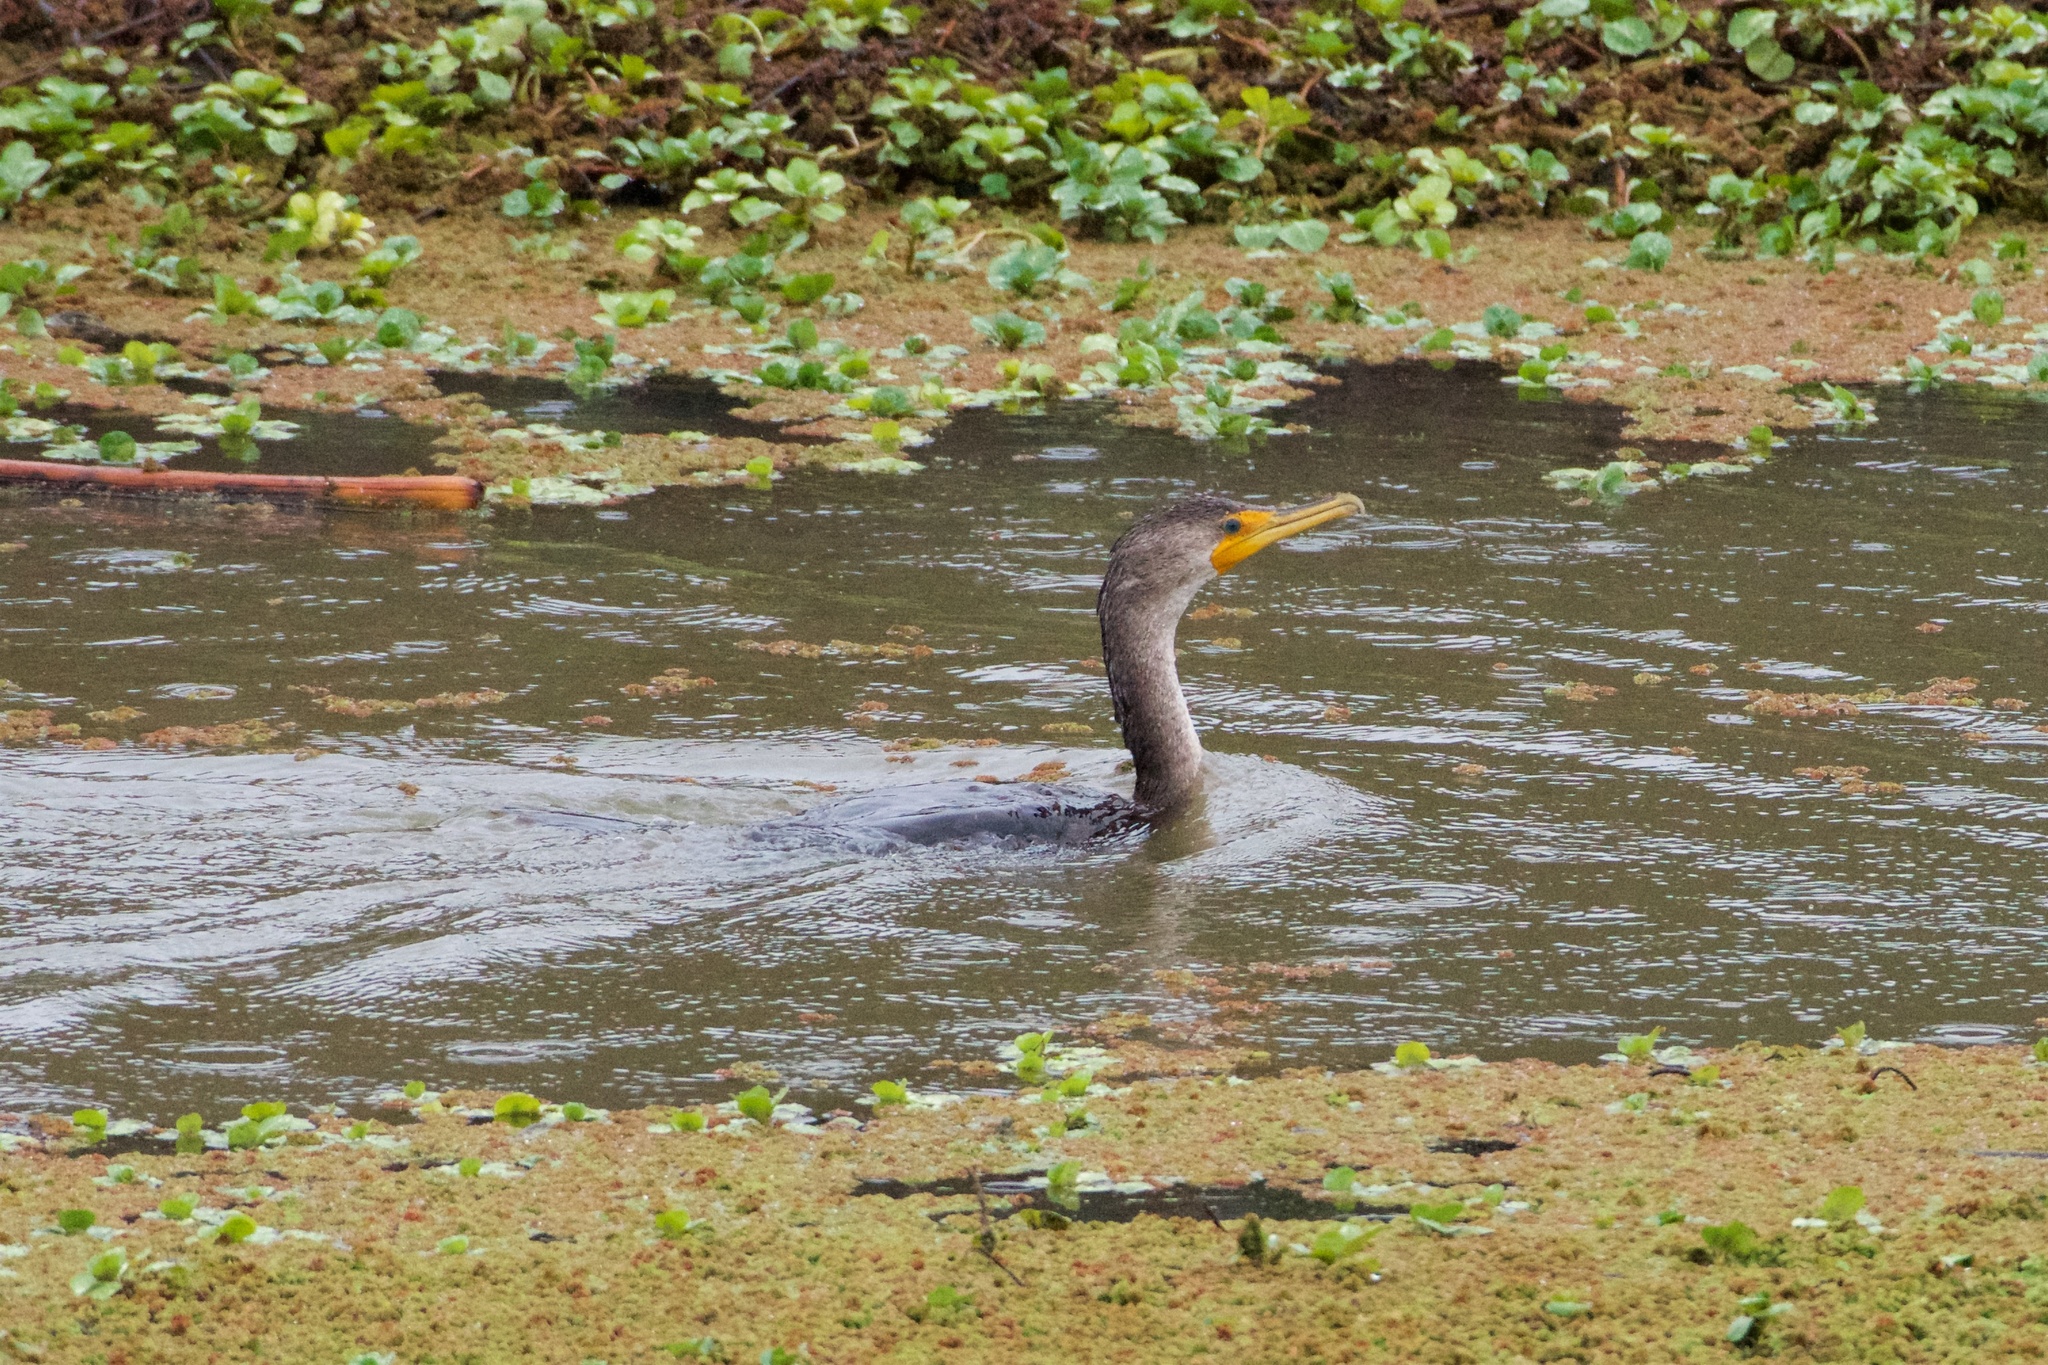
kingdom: Animalia
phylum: Chordata
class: Aves
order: Suliformes
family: Phalacrocoracidae
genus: Phalacrocorax
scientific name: Phalacrocorax auritus
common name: Double-crested cormorant
